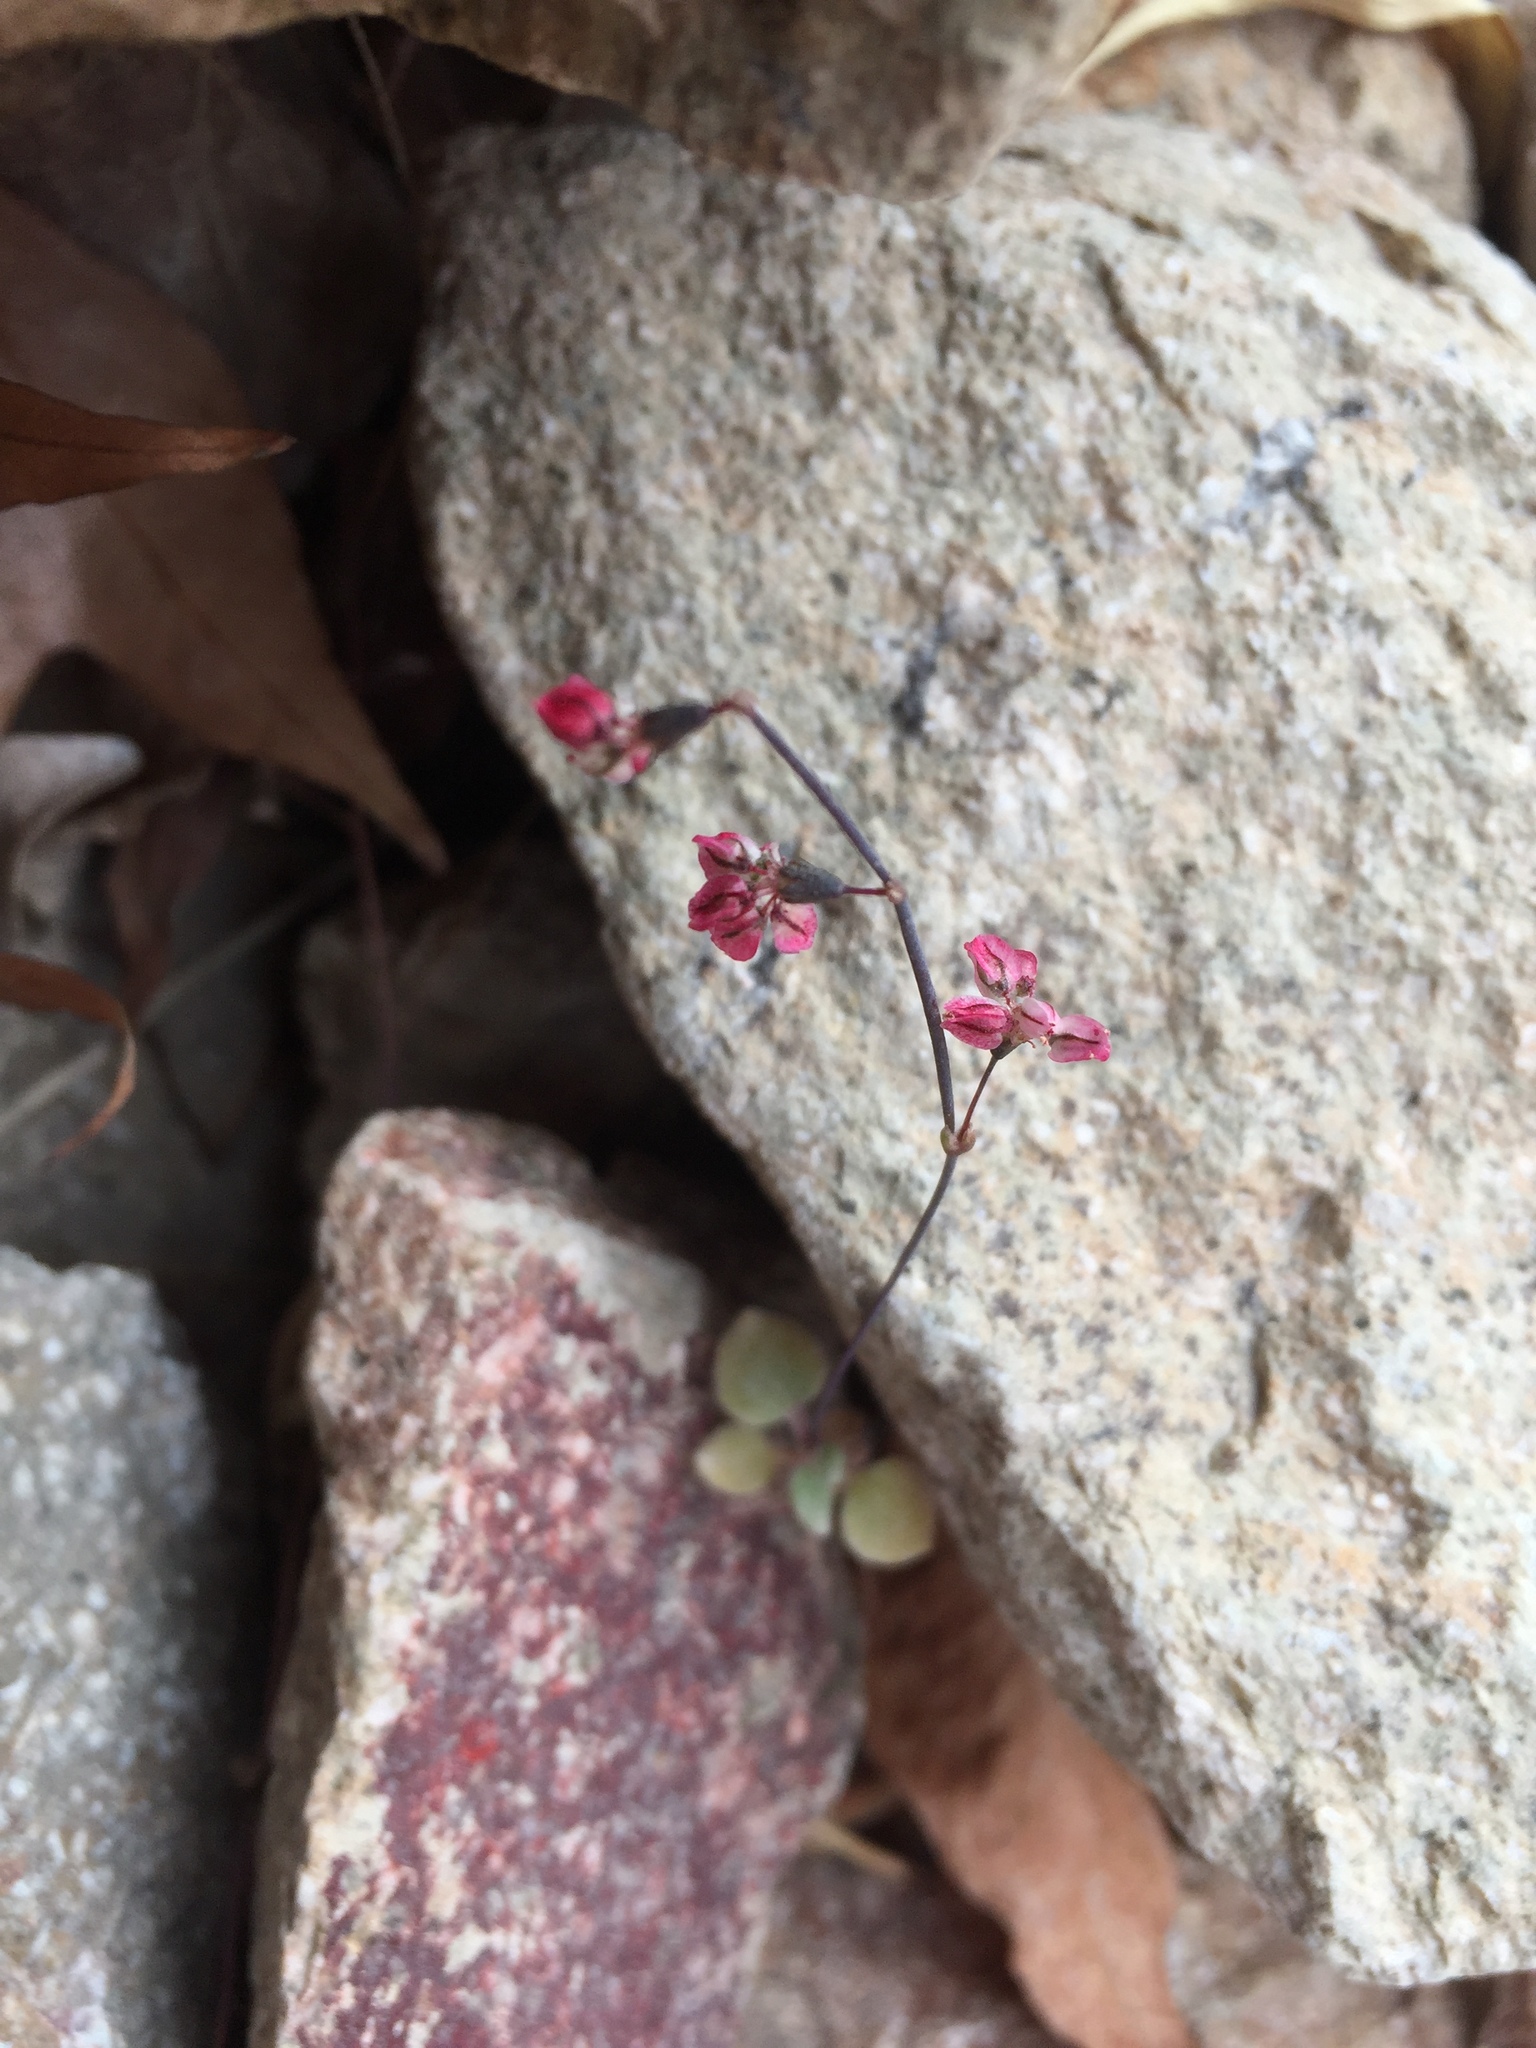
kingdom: Plantae
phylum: Tracheophyta
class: Magnoliopsida
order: Caryophyllales
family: Polygonaceae
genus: Eriogonum
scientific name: Eriogonum deflexum
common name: Skeleton-weed
